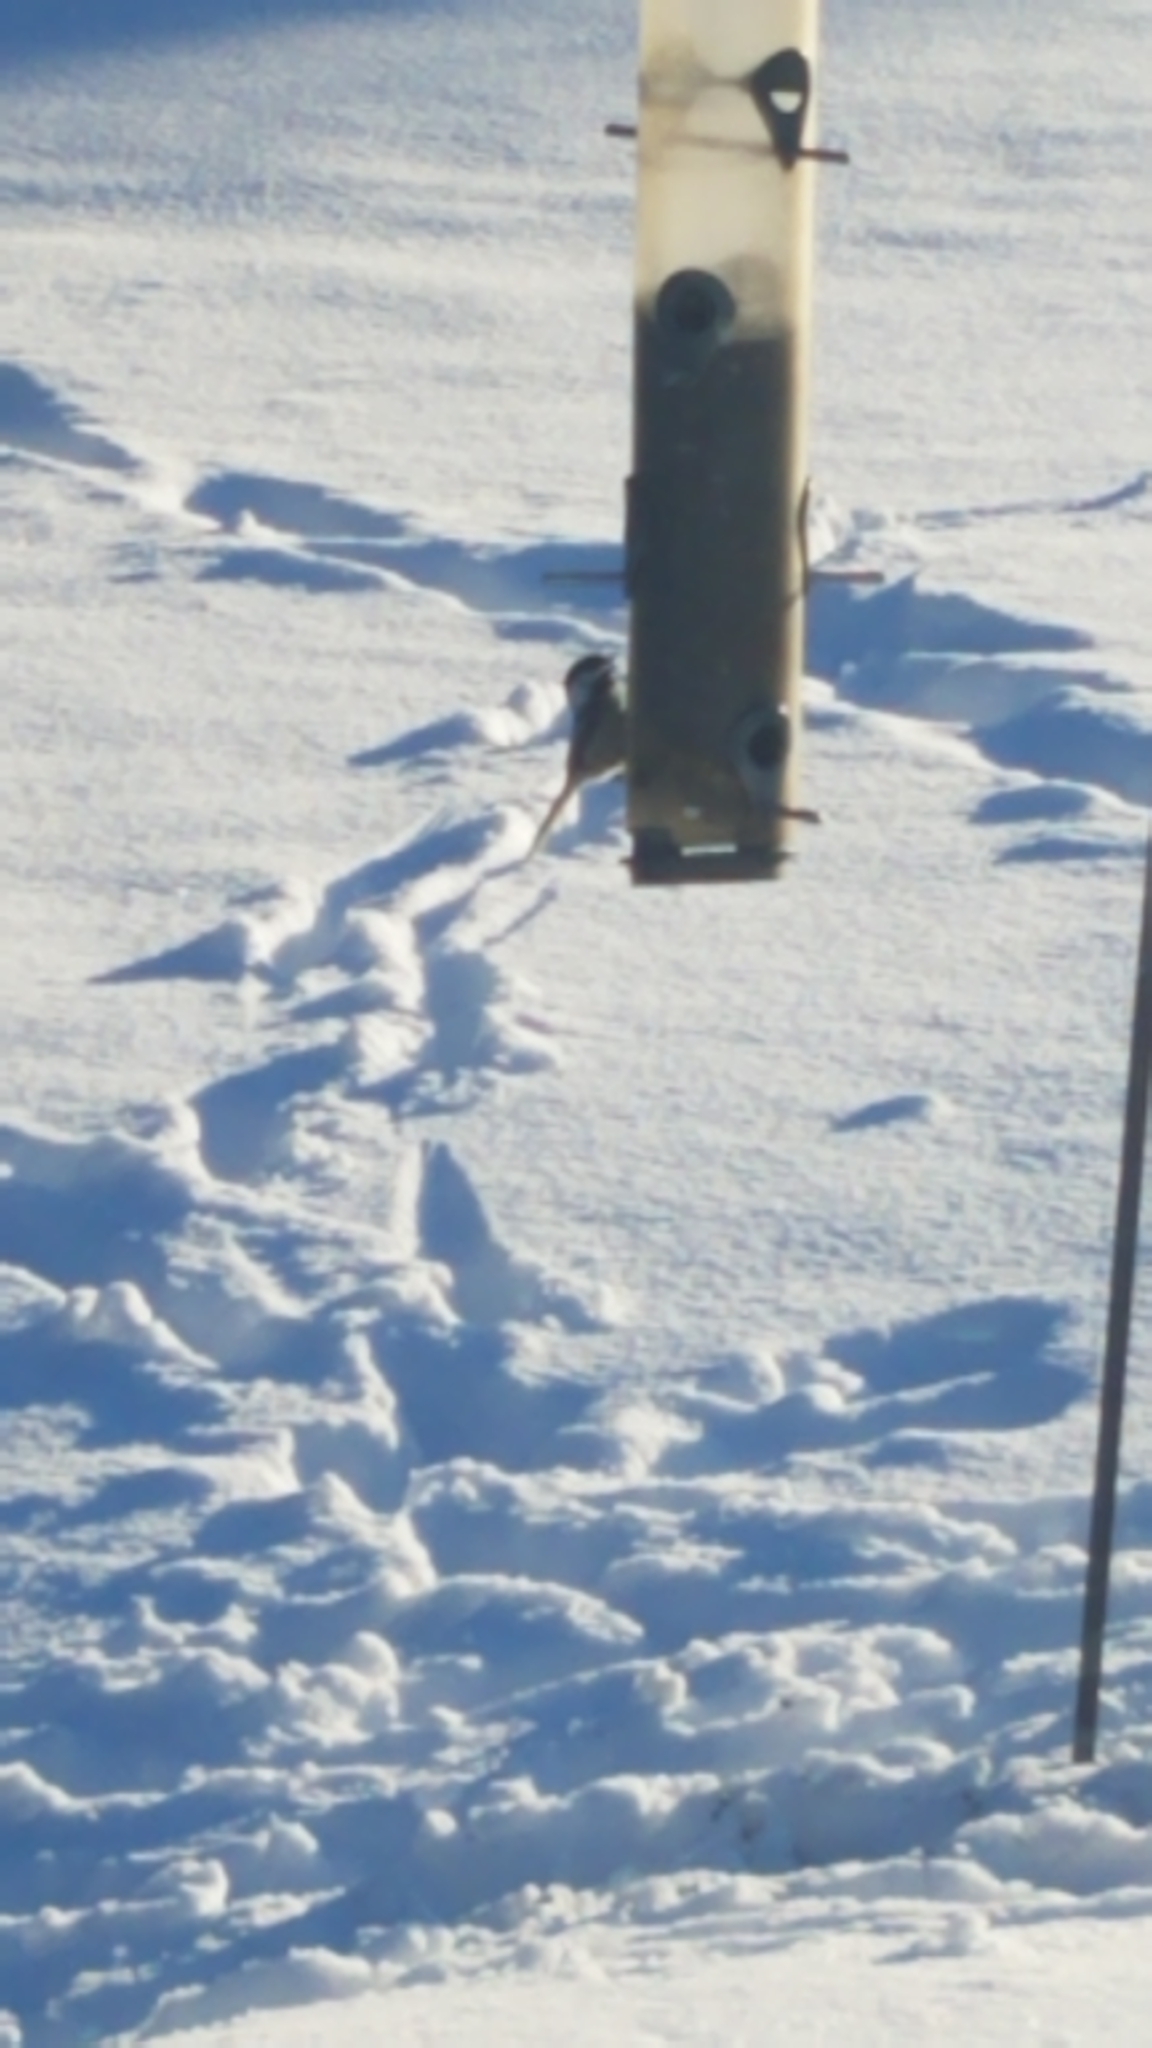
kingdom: Animalia
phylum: Chordata
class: Aves
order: Passeriformes
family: Paridae
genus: Poecile
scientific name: Poecile atricapillus
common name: Black-capped chickadee
